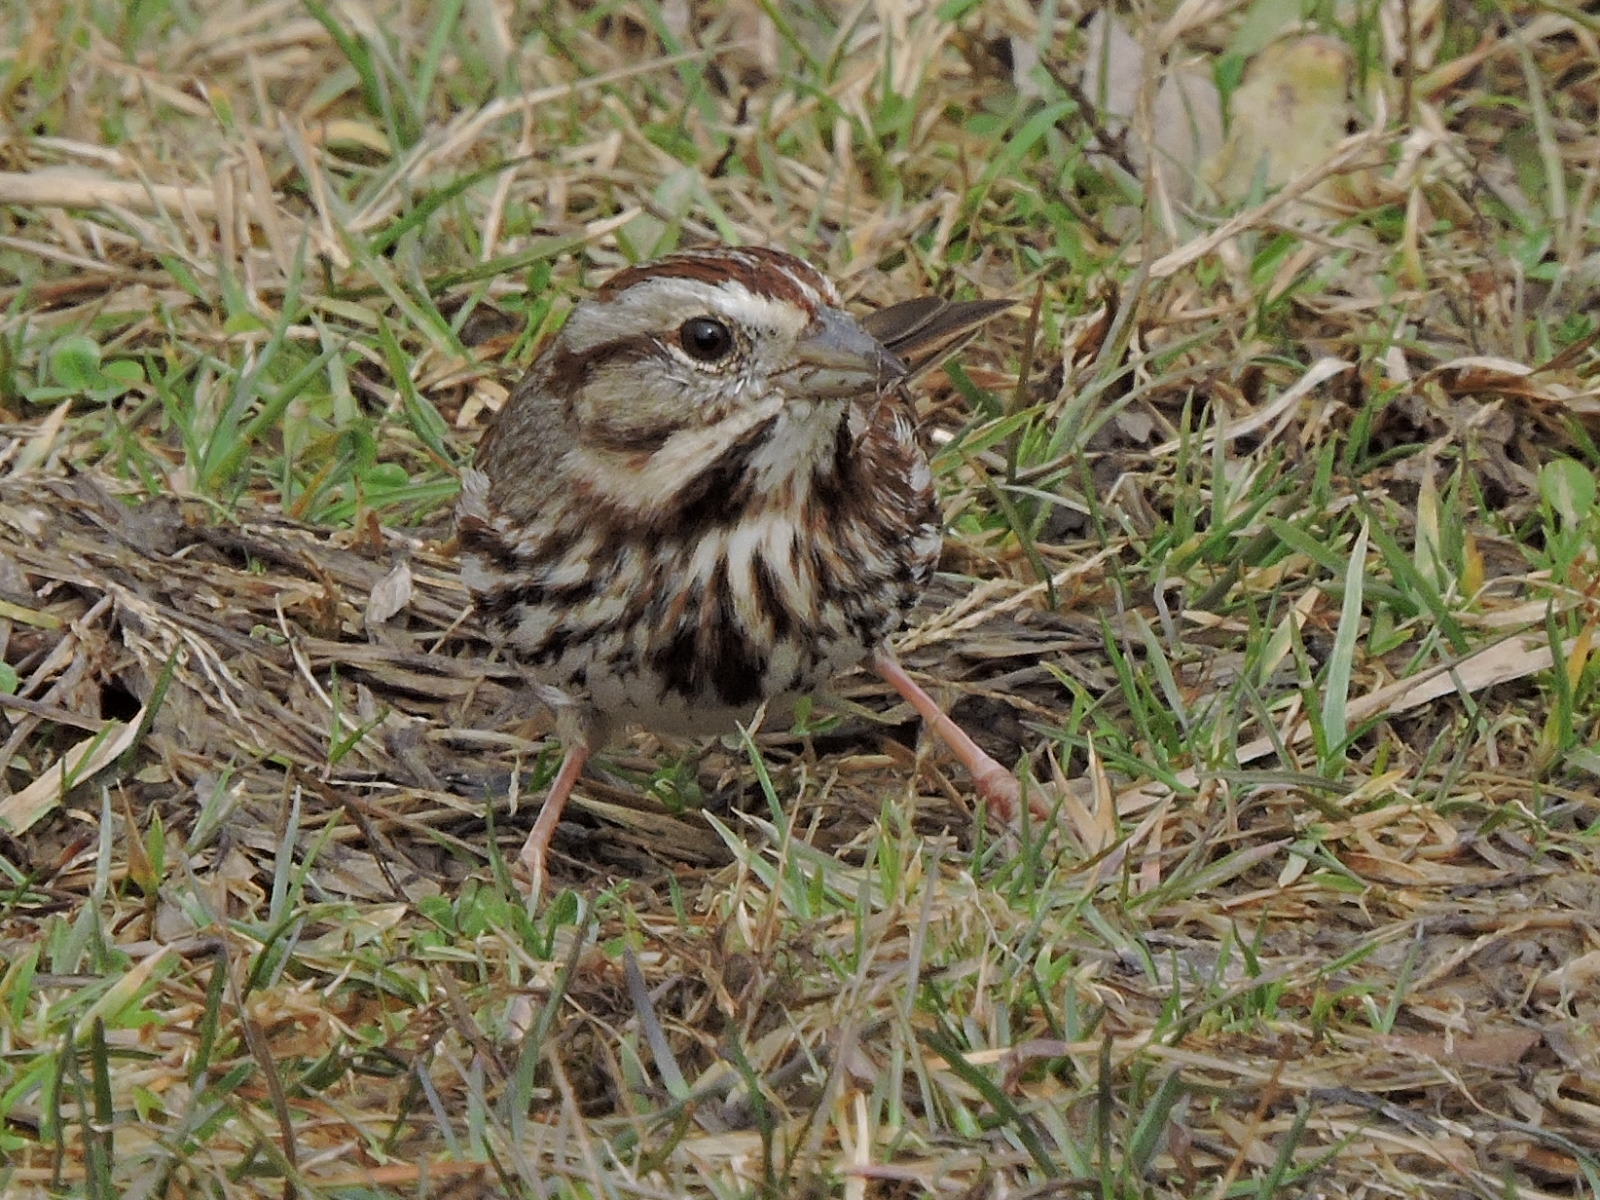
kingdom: Animalia
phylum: Chordata
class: Aves
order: Passeriformes
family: Passerellidae
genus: Melospiza
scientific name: Melospiza melodia
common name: Song sparrow
